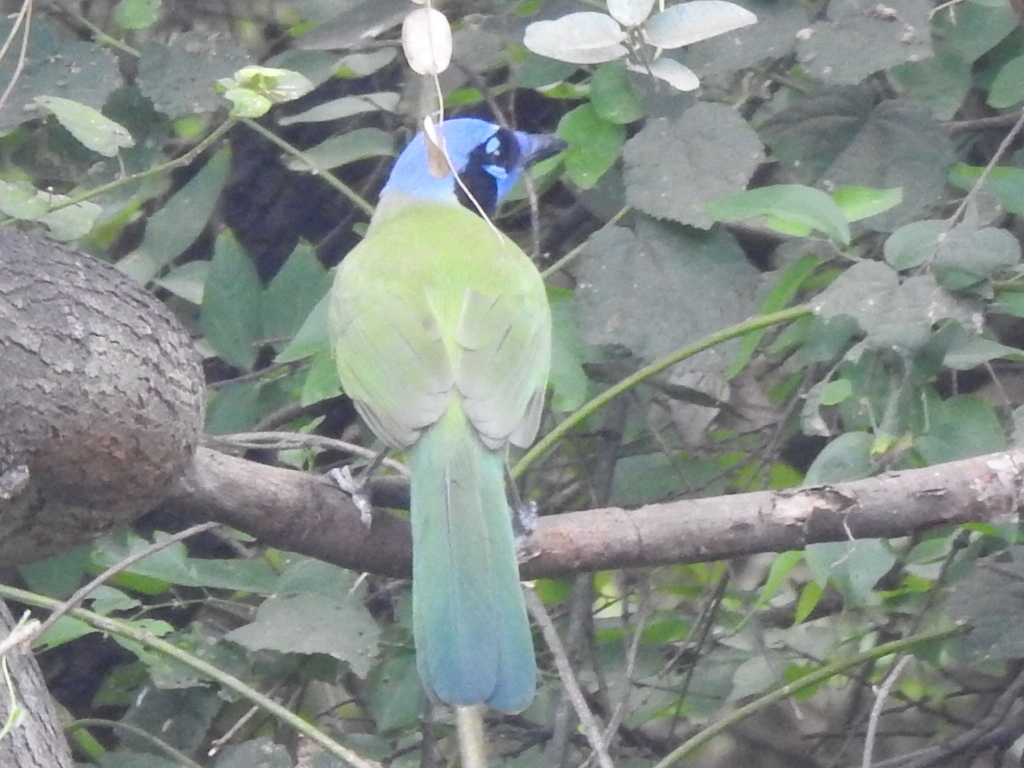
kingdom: Animalia
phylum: Chordata
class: Aves
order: Passeriformes
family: Corvidae
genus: Cyanocorax
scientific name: Cyanocorax yncas
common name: Green jay
